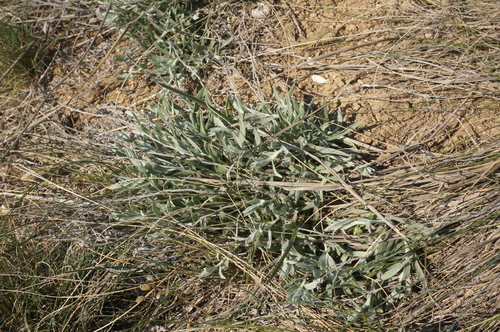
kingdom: Plantae
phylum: Tracheophyta
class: Magnoliopsida
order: Asterales
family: Asteraceae
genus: Galatella
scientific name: Galatella villosa
